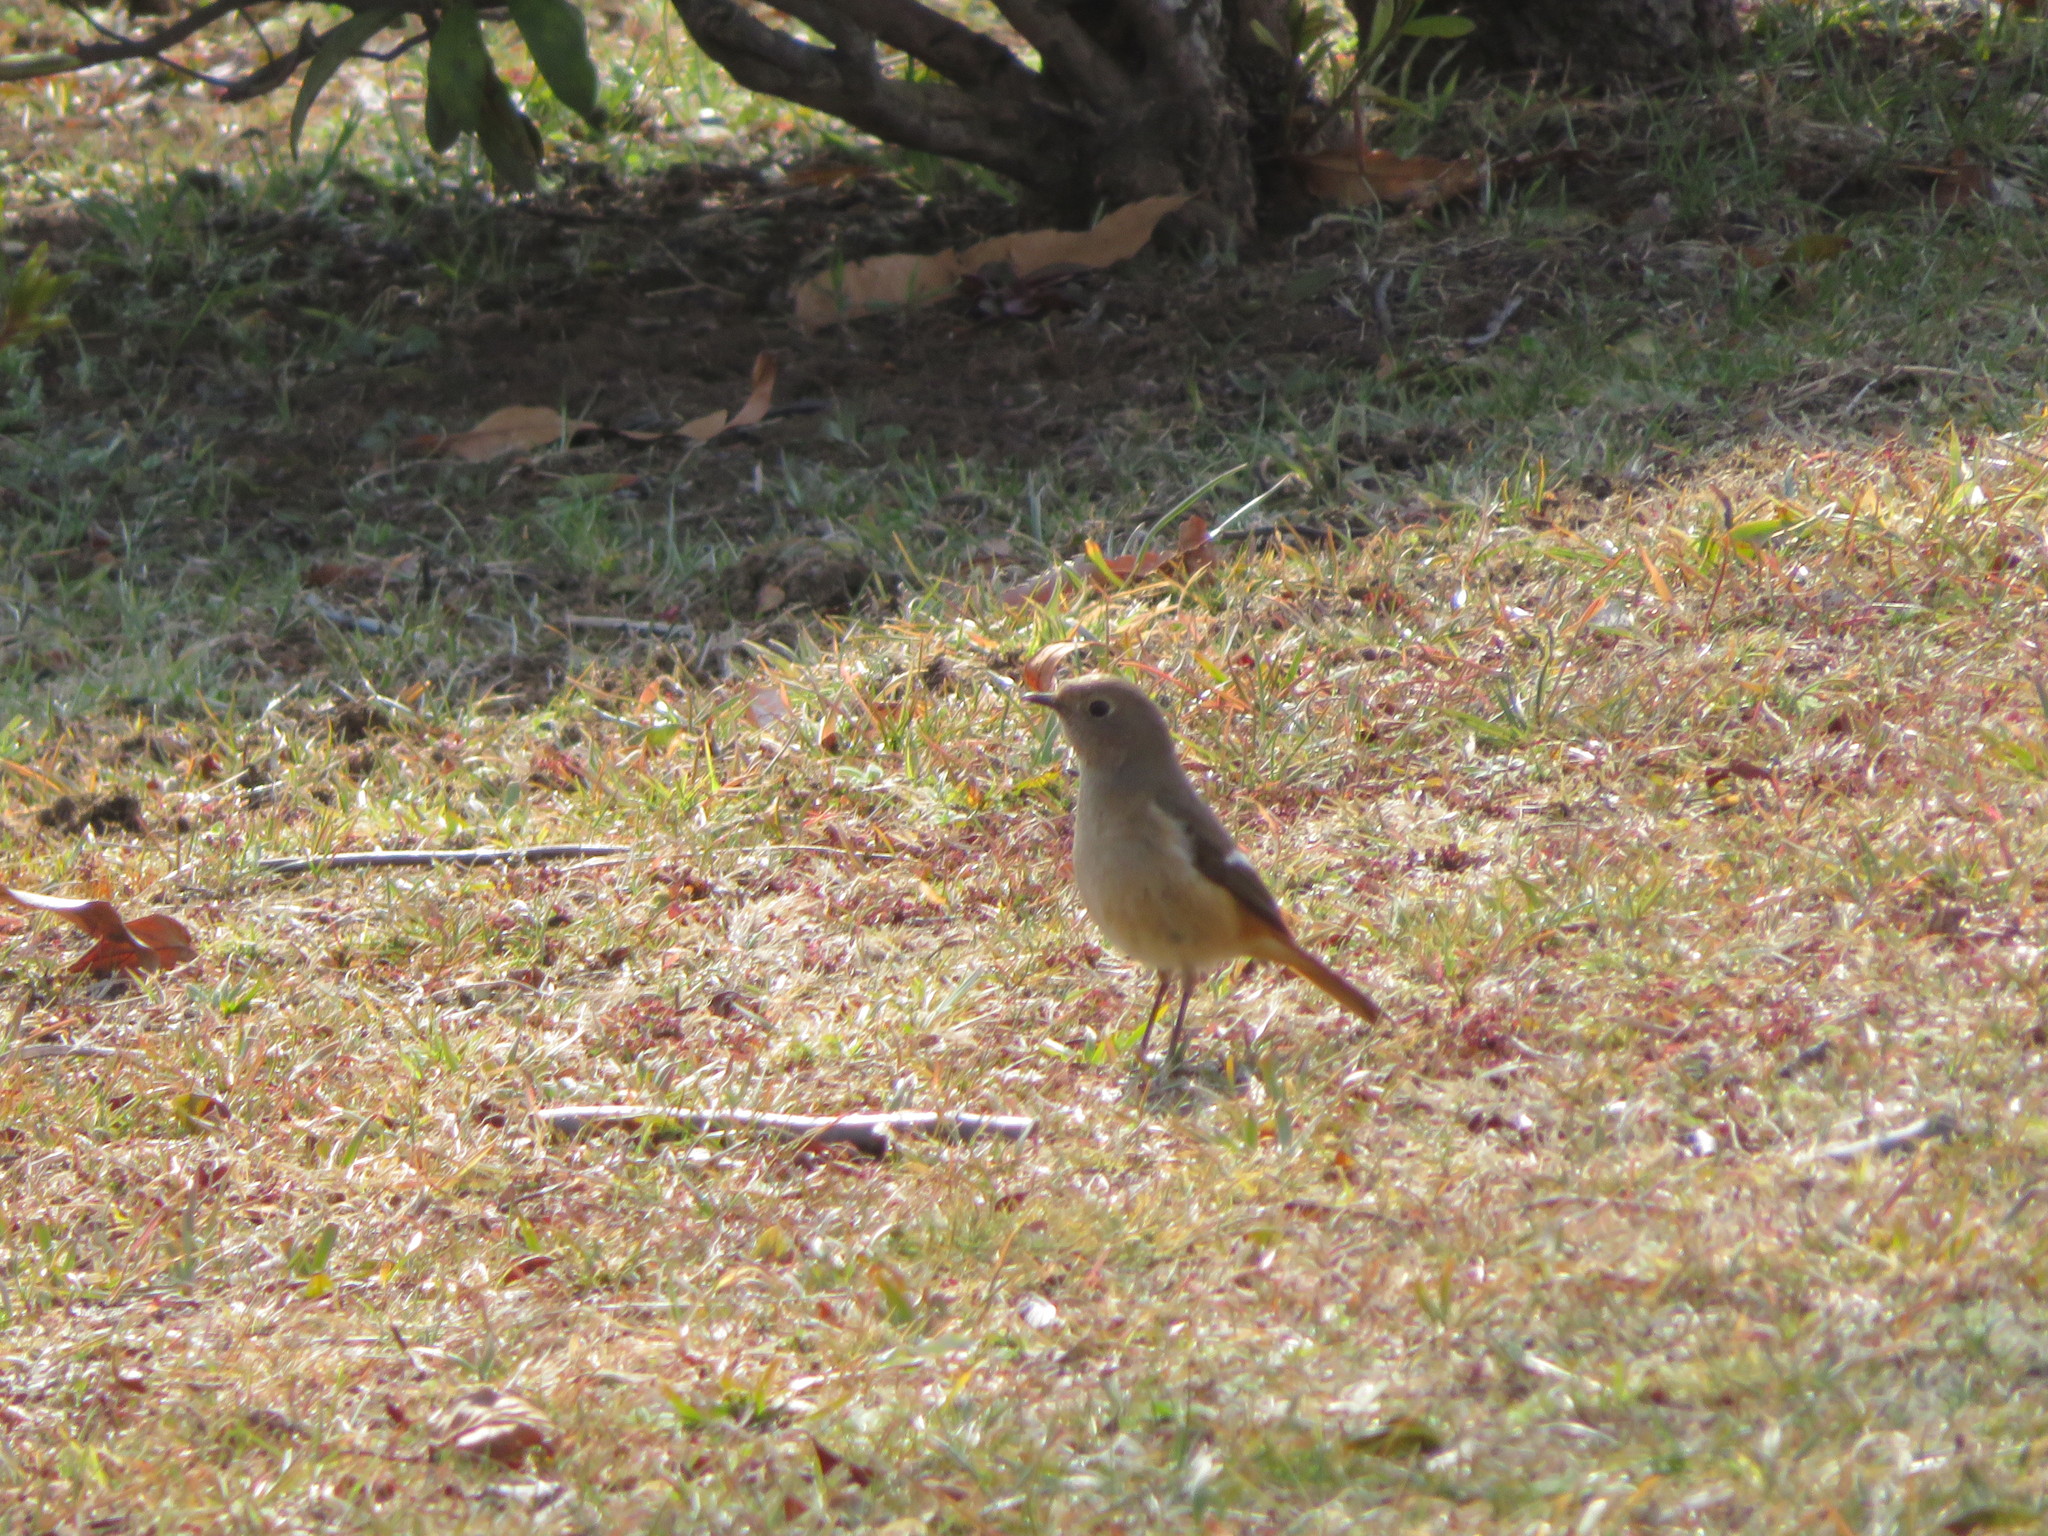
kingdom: Animalia
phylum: Chordata
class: Aves
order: Passeriformes
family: Muscicapidae
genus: Phoenicurus
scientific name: Phoenicurus auroreus
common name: Daurian redstart
